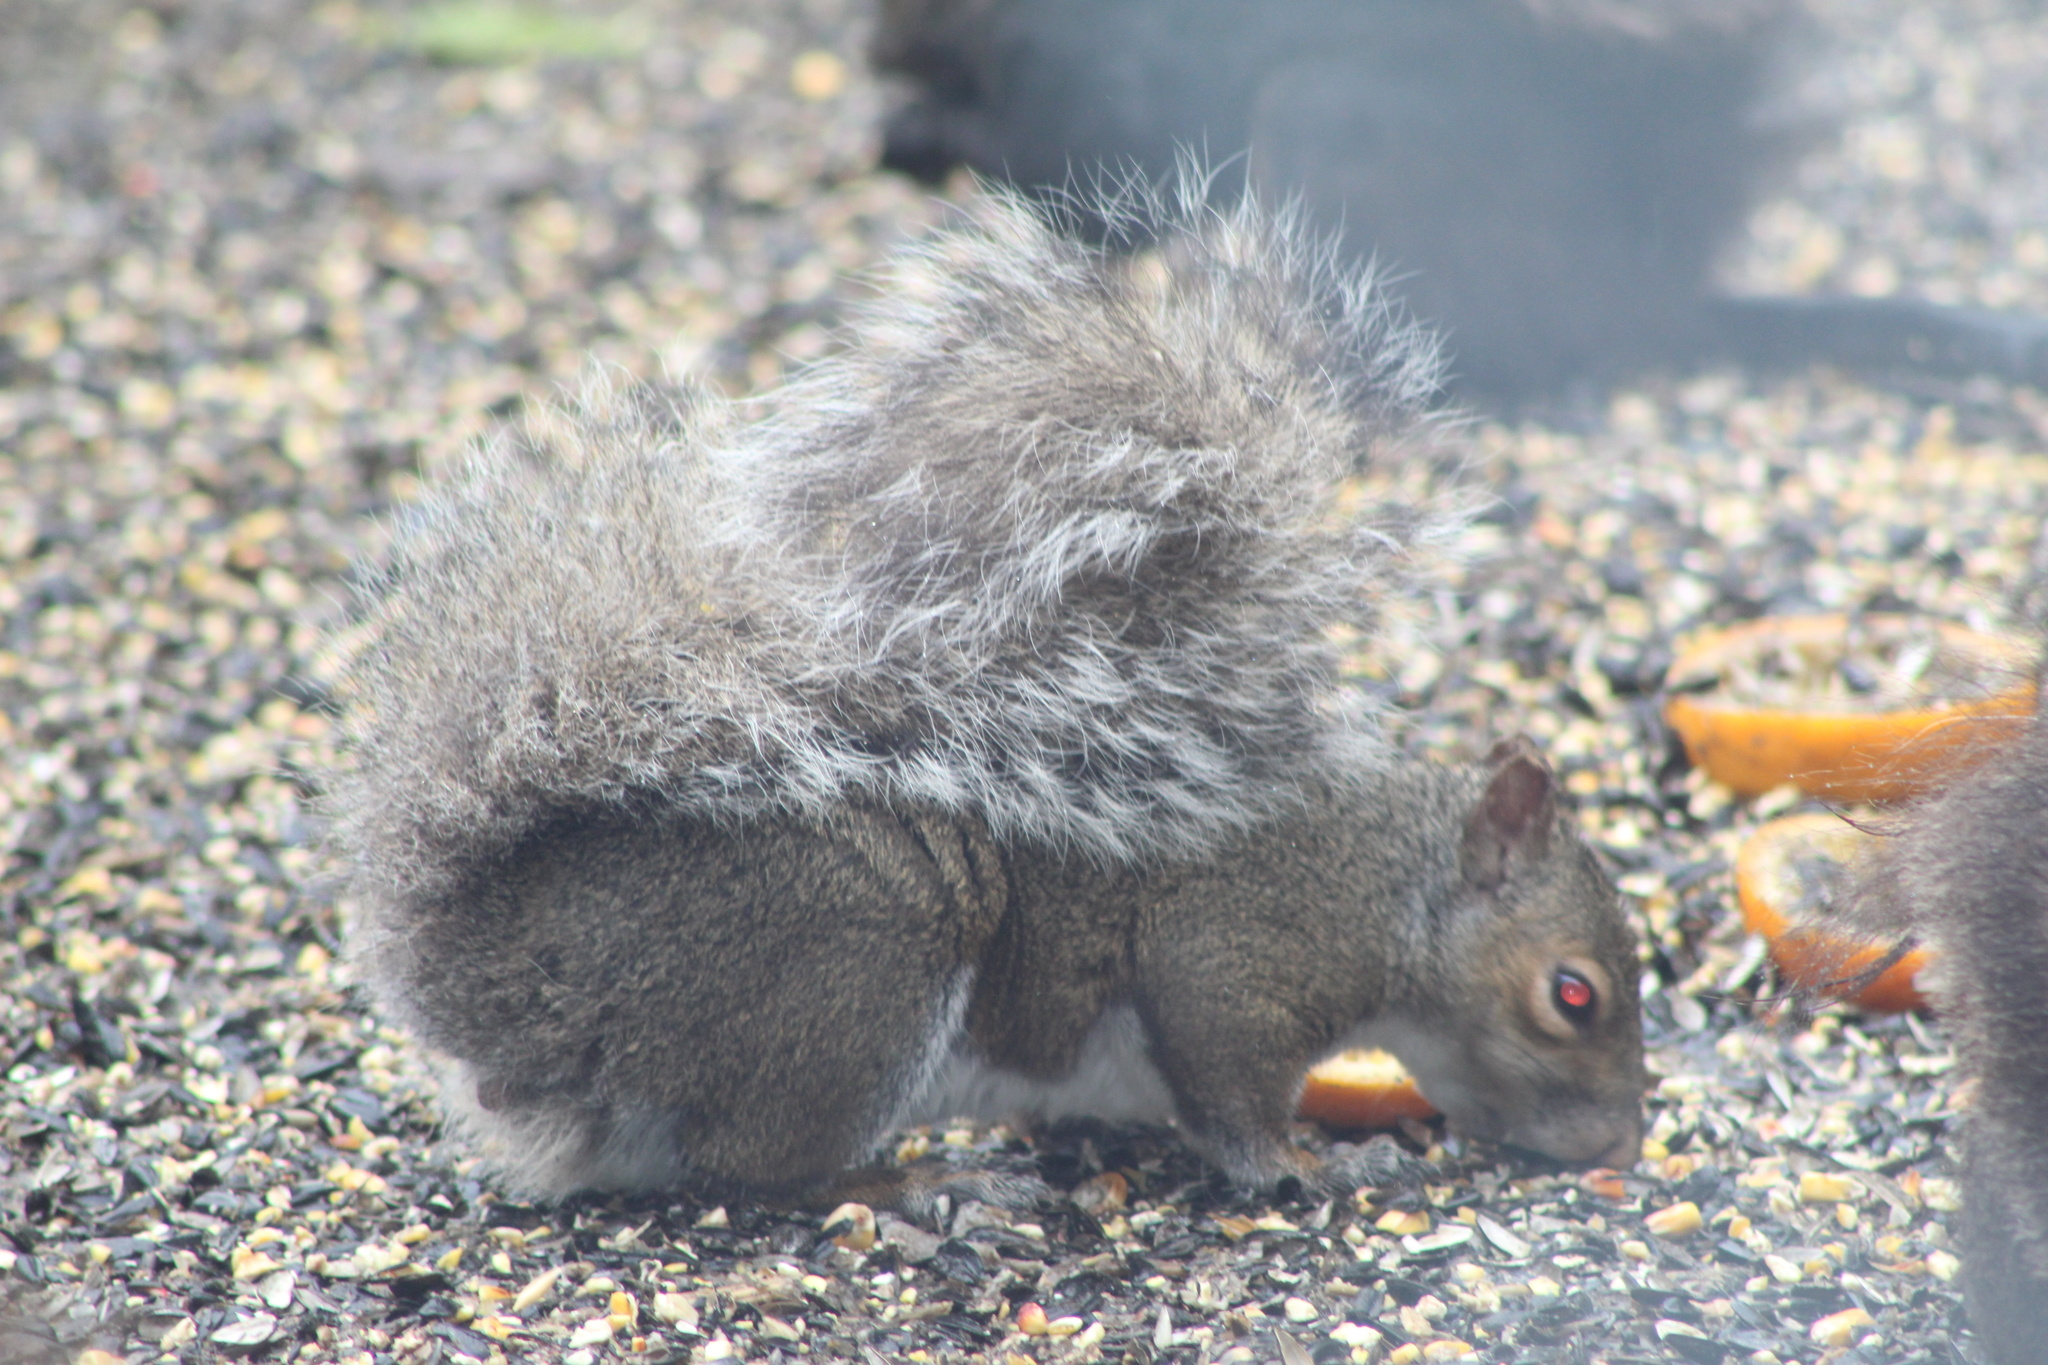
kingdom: Animalia
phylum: Chordata
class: Mammalia
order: Rodentia
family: Sciuridae
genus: Sciurus
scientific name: Sciurus carolinensis
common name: Eastern gray squirrel
